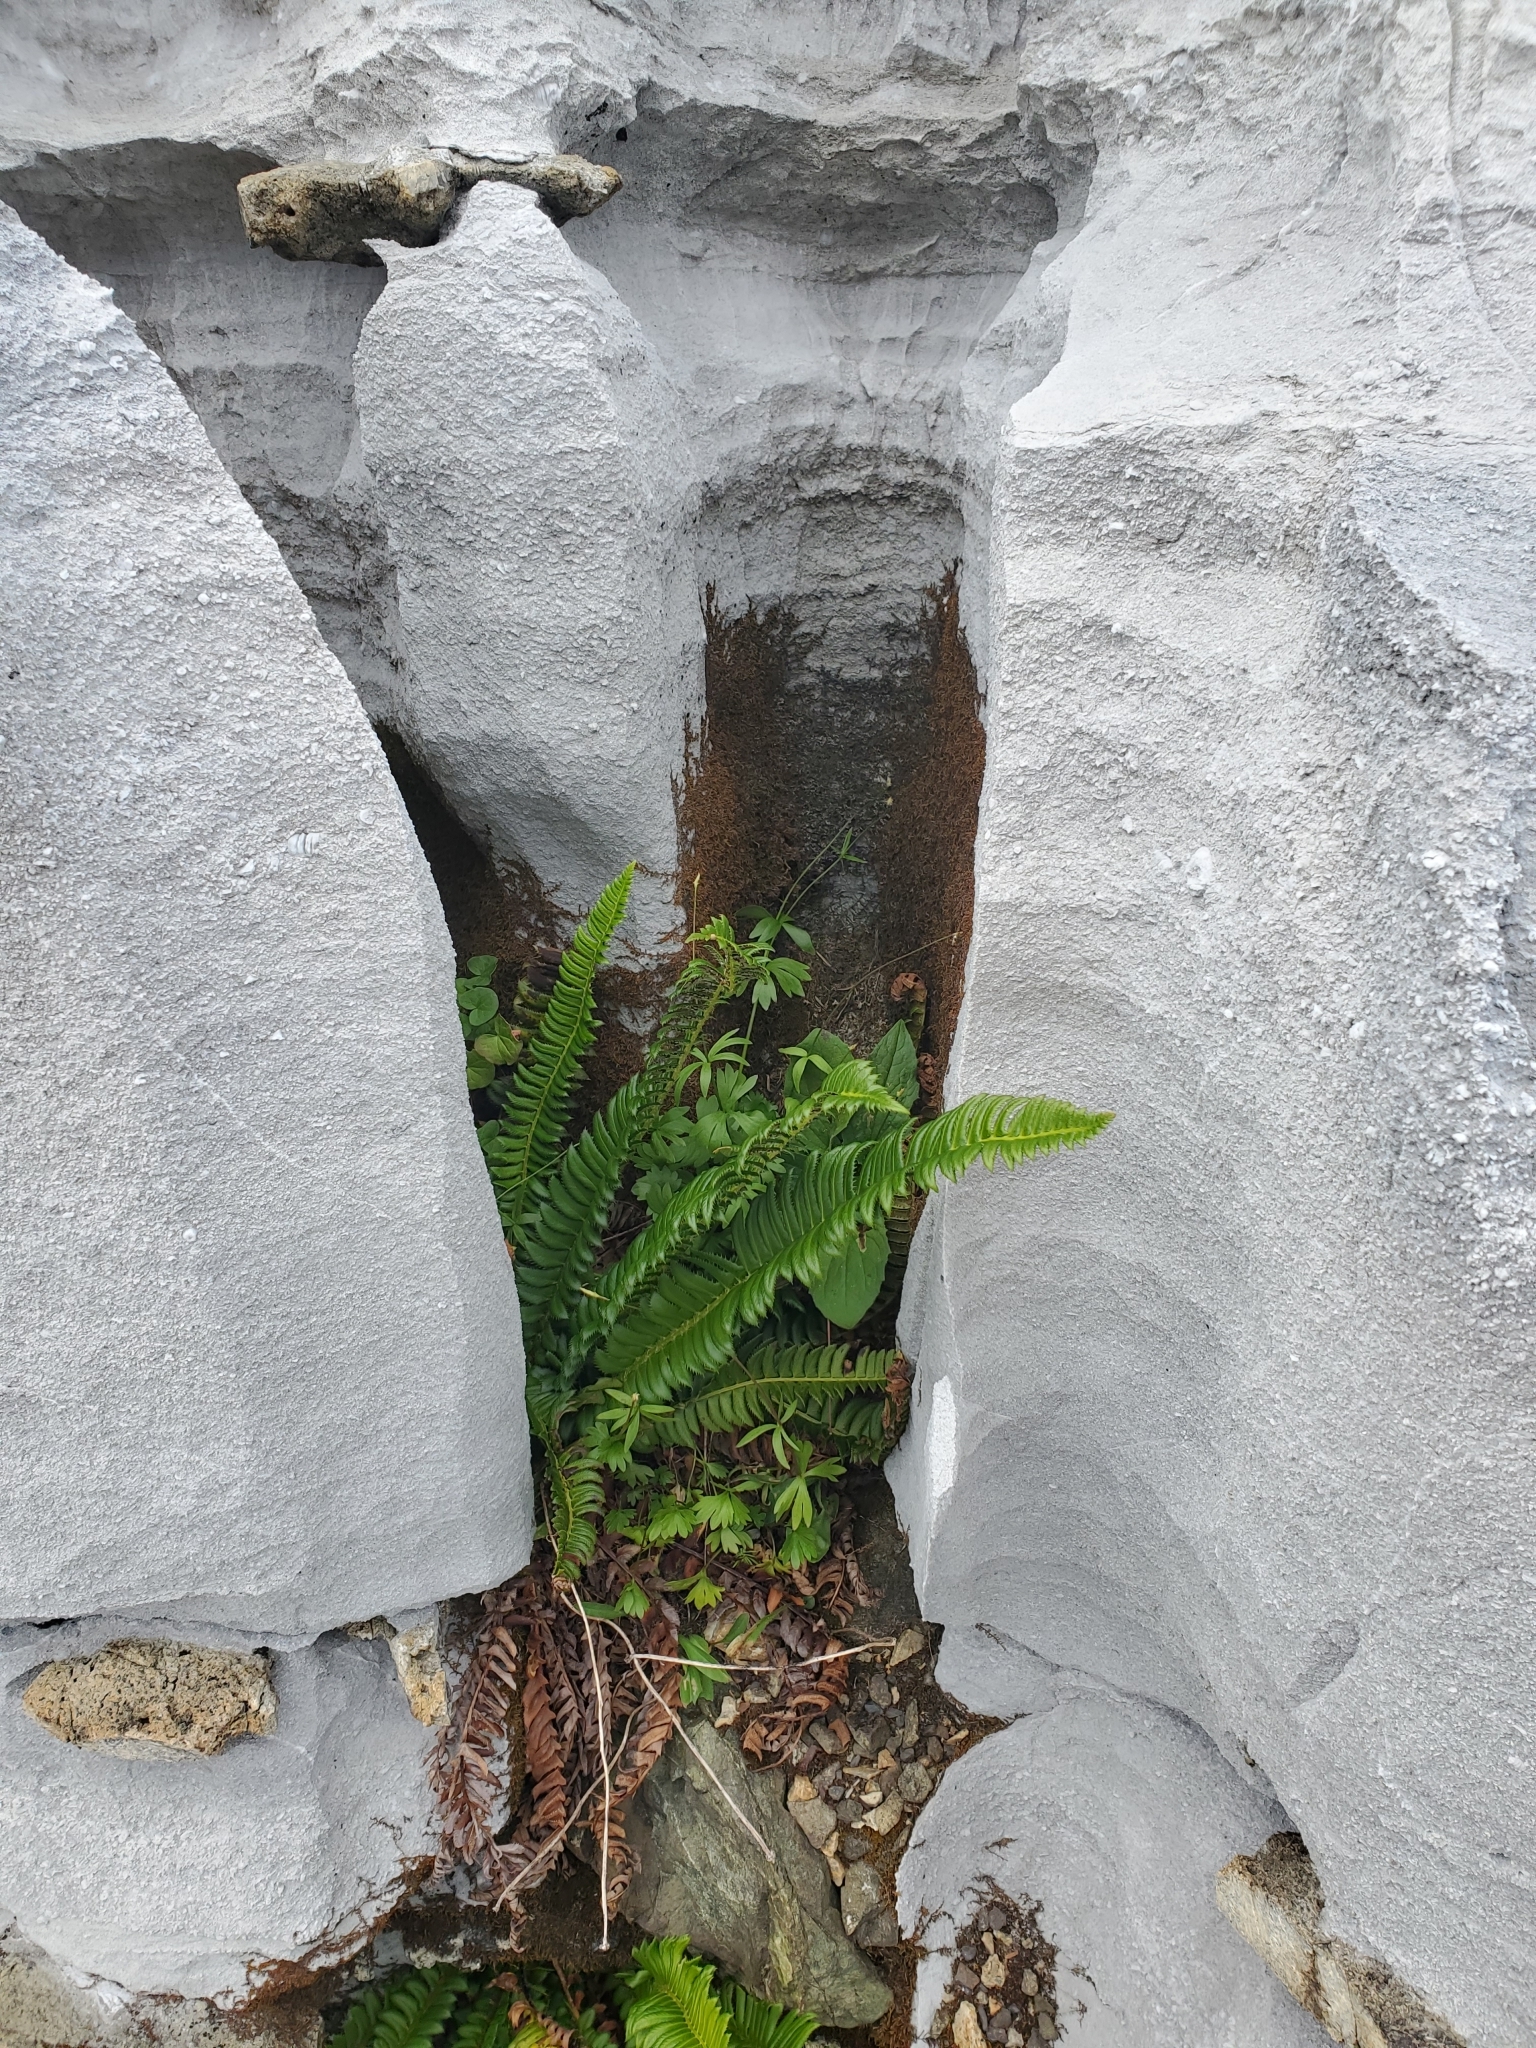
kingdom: Plantae
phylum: Tracheophyta
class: Polypodiopsida
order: Polypodiales
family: Dryopteridaceae
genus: Polystichum
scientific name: Polystichum lonchitis
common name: Holly fern
